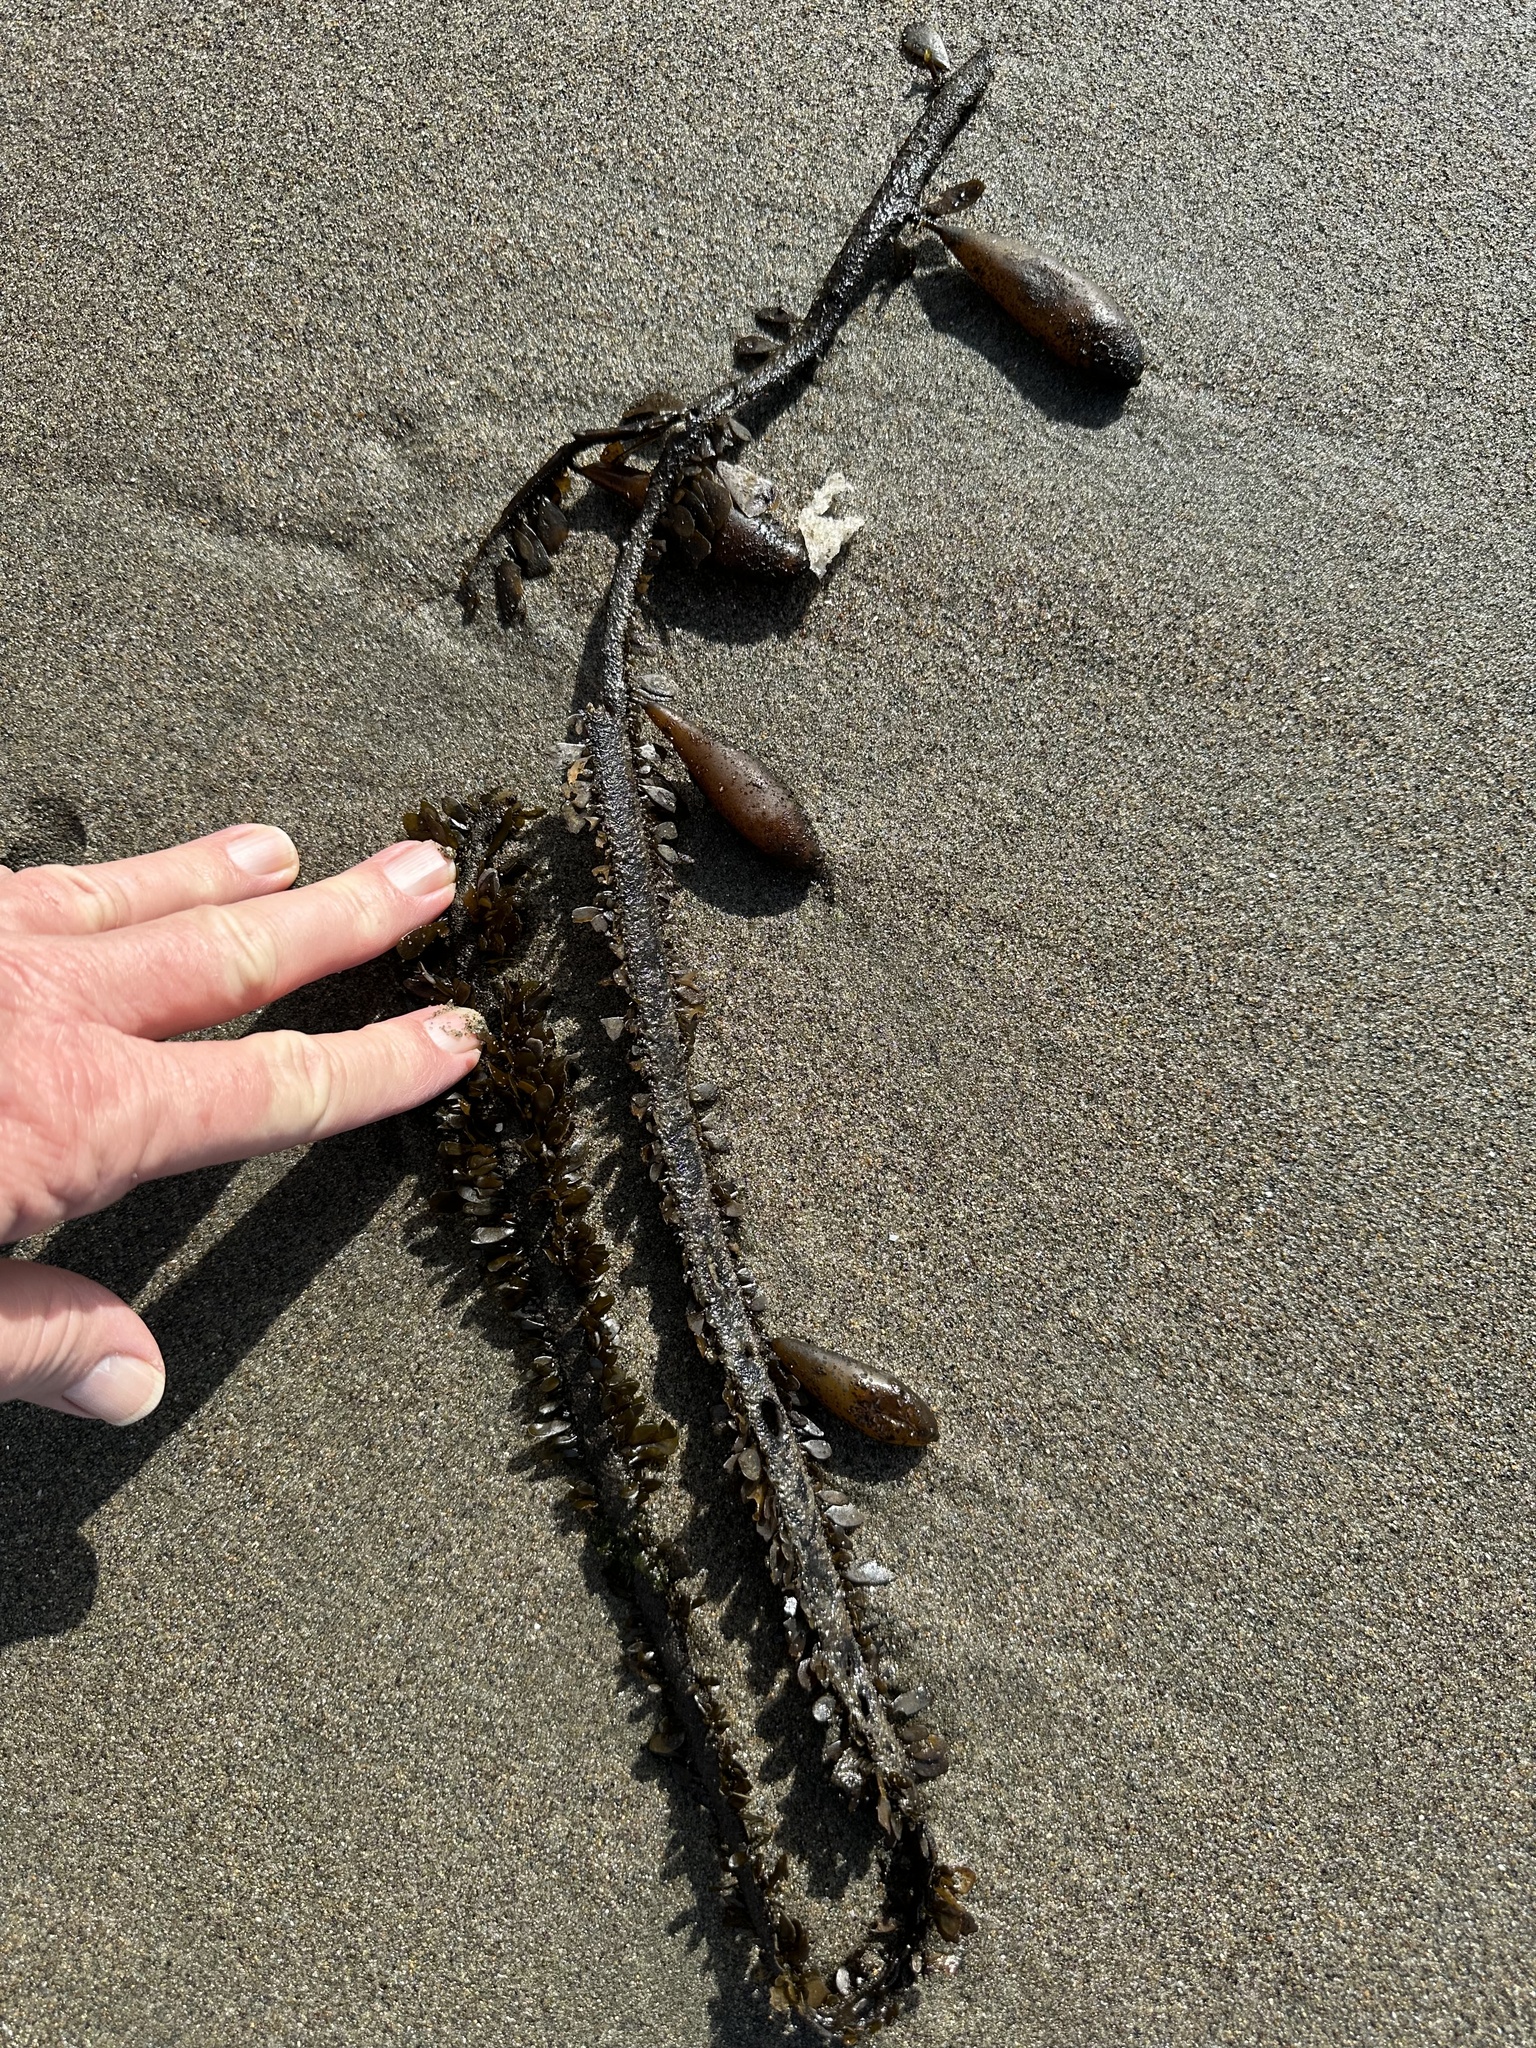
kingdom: Chromista
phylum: Ochrophyta
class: Phaeophyceae
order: Laminariales
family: Lessoniaceae
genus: Egregia
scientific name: Egregia menziesii
